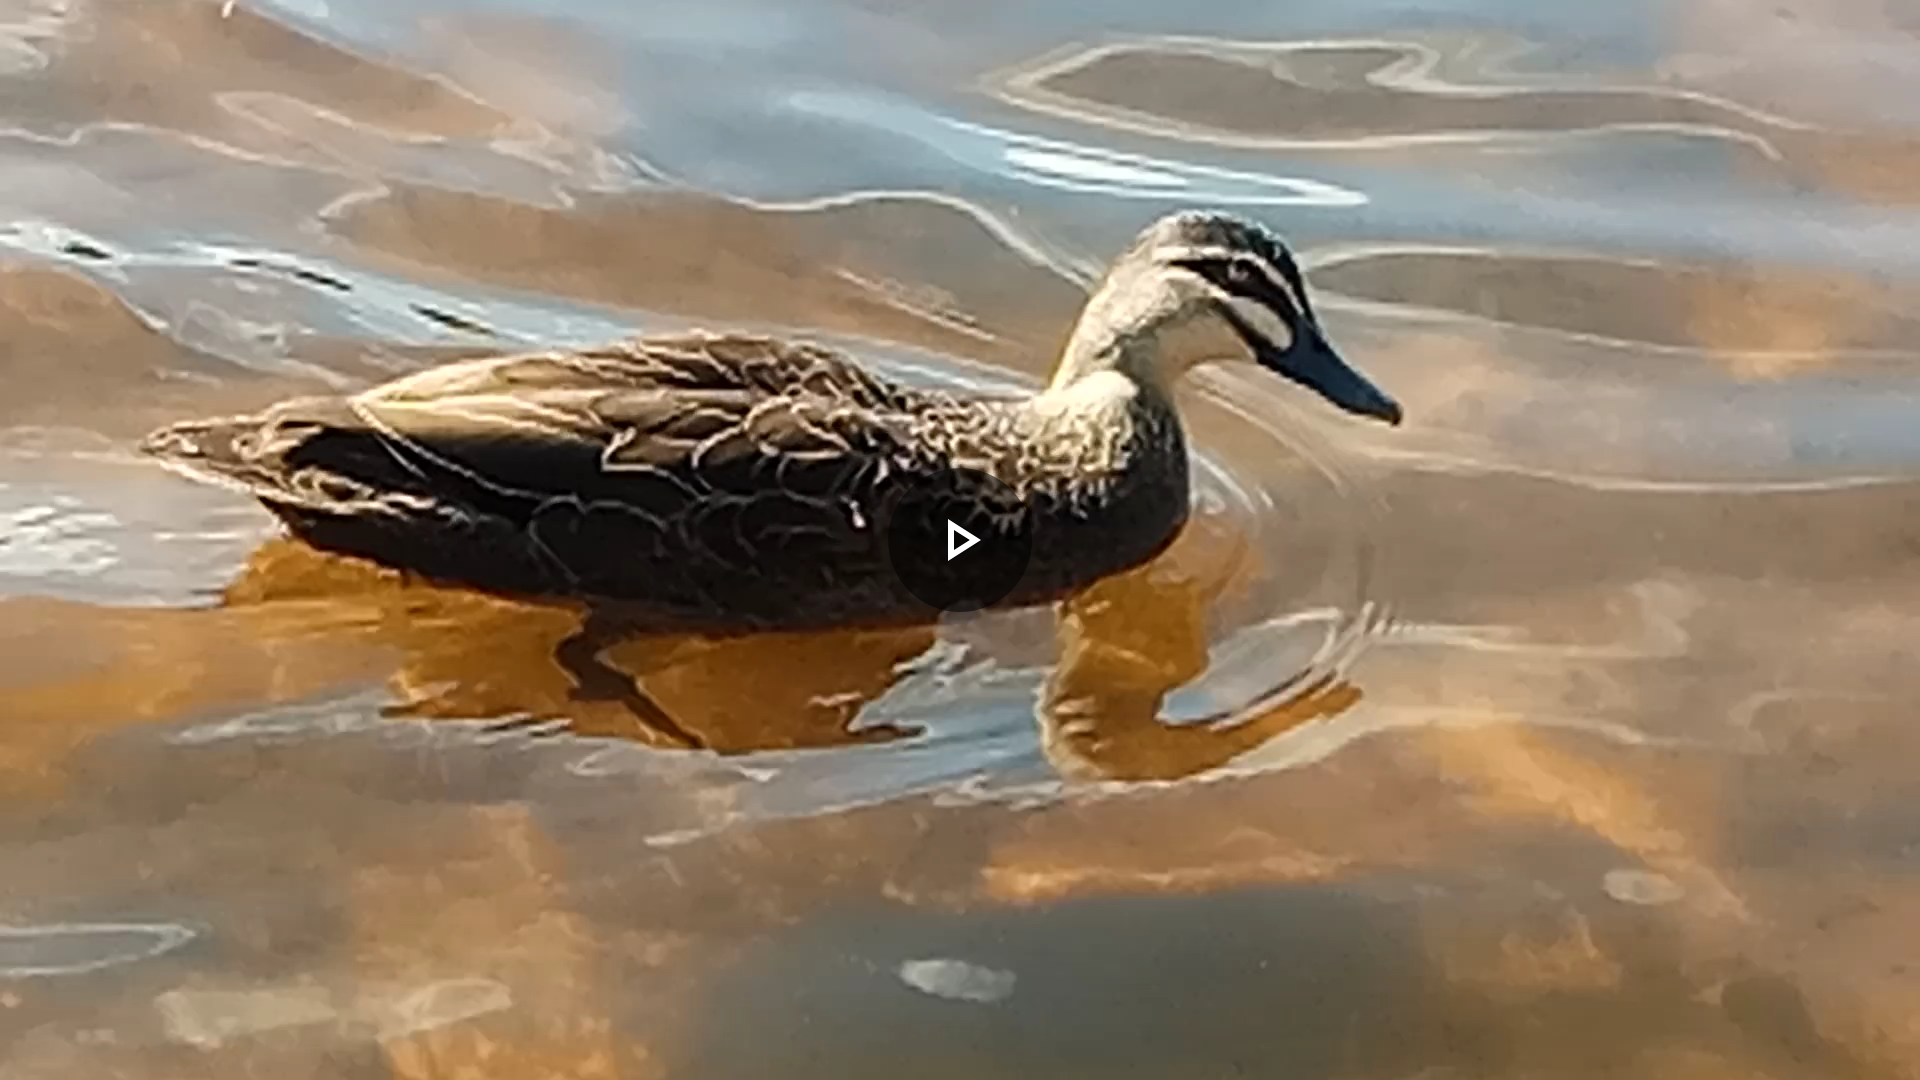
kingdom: Animalia
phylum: Chordata
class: Aves
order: Anseriformes
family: Anatidae
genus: Anas
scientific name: Anas superciliosa
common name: Pacific black duck
